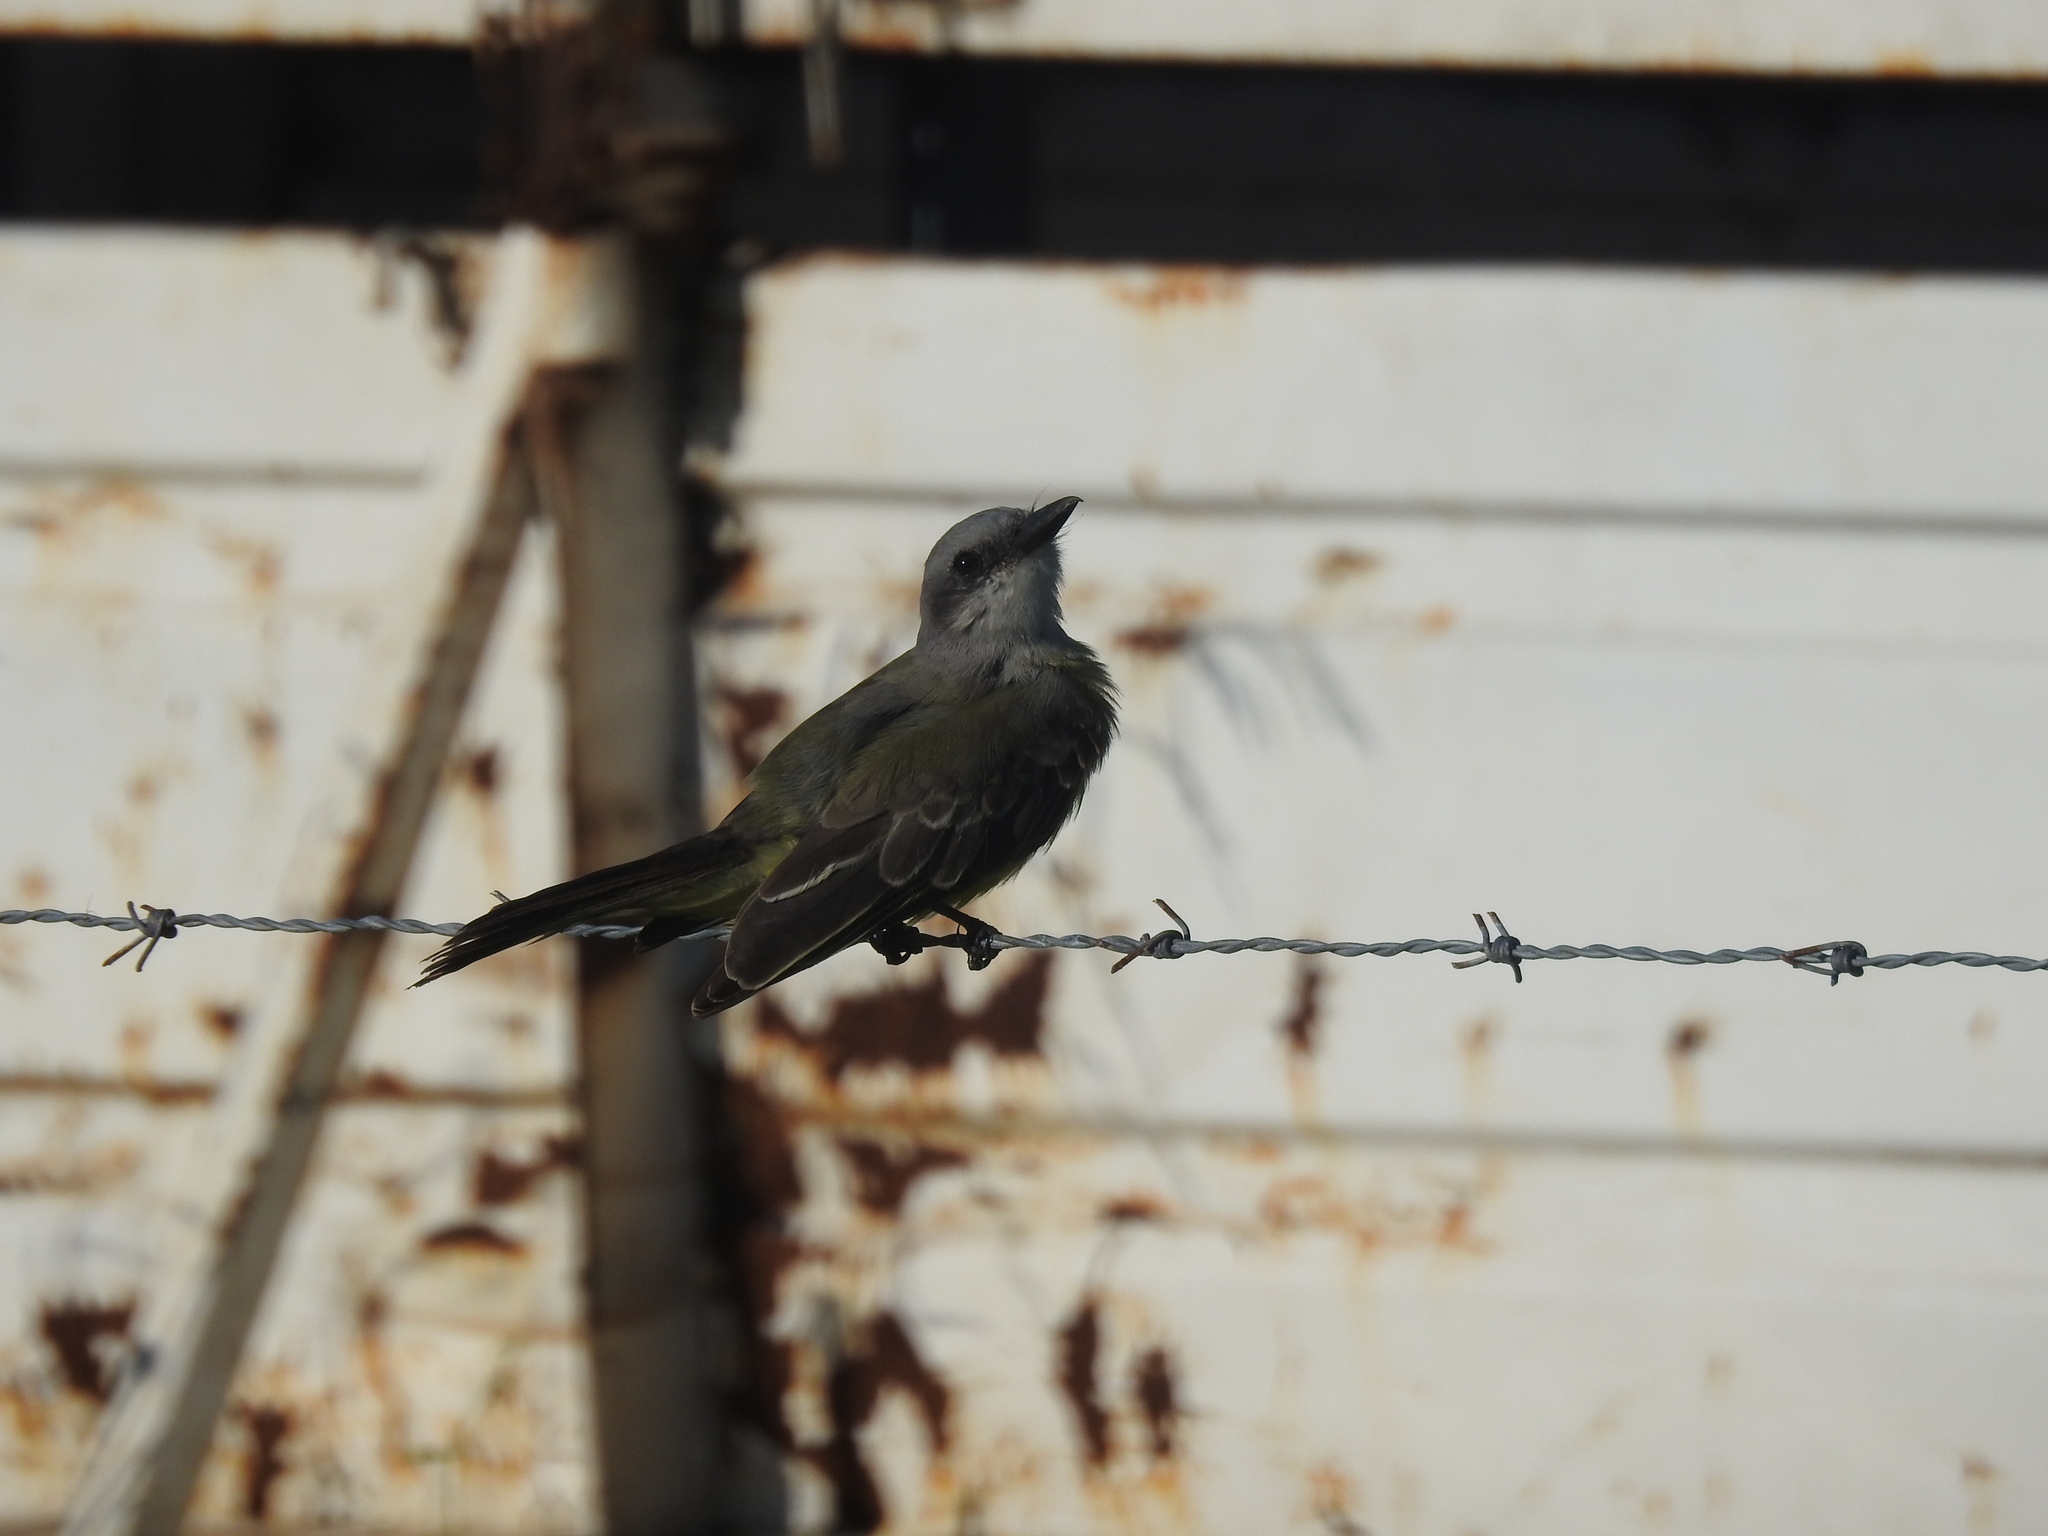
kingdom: Animalia
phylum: Chordata
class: Aves
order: Passeriformes
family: Tyrannidae
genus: Tyrannus
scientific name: Tyrannus melancholicus
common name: Tropical kingbird
